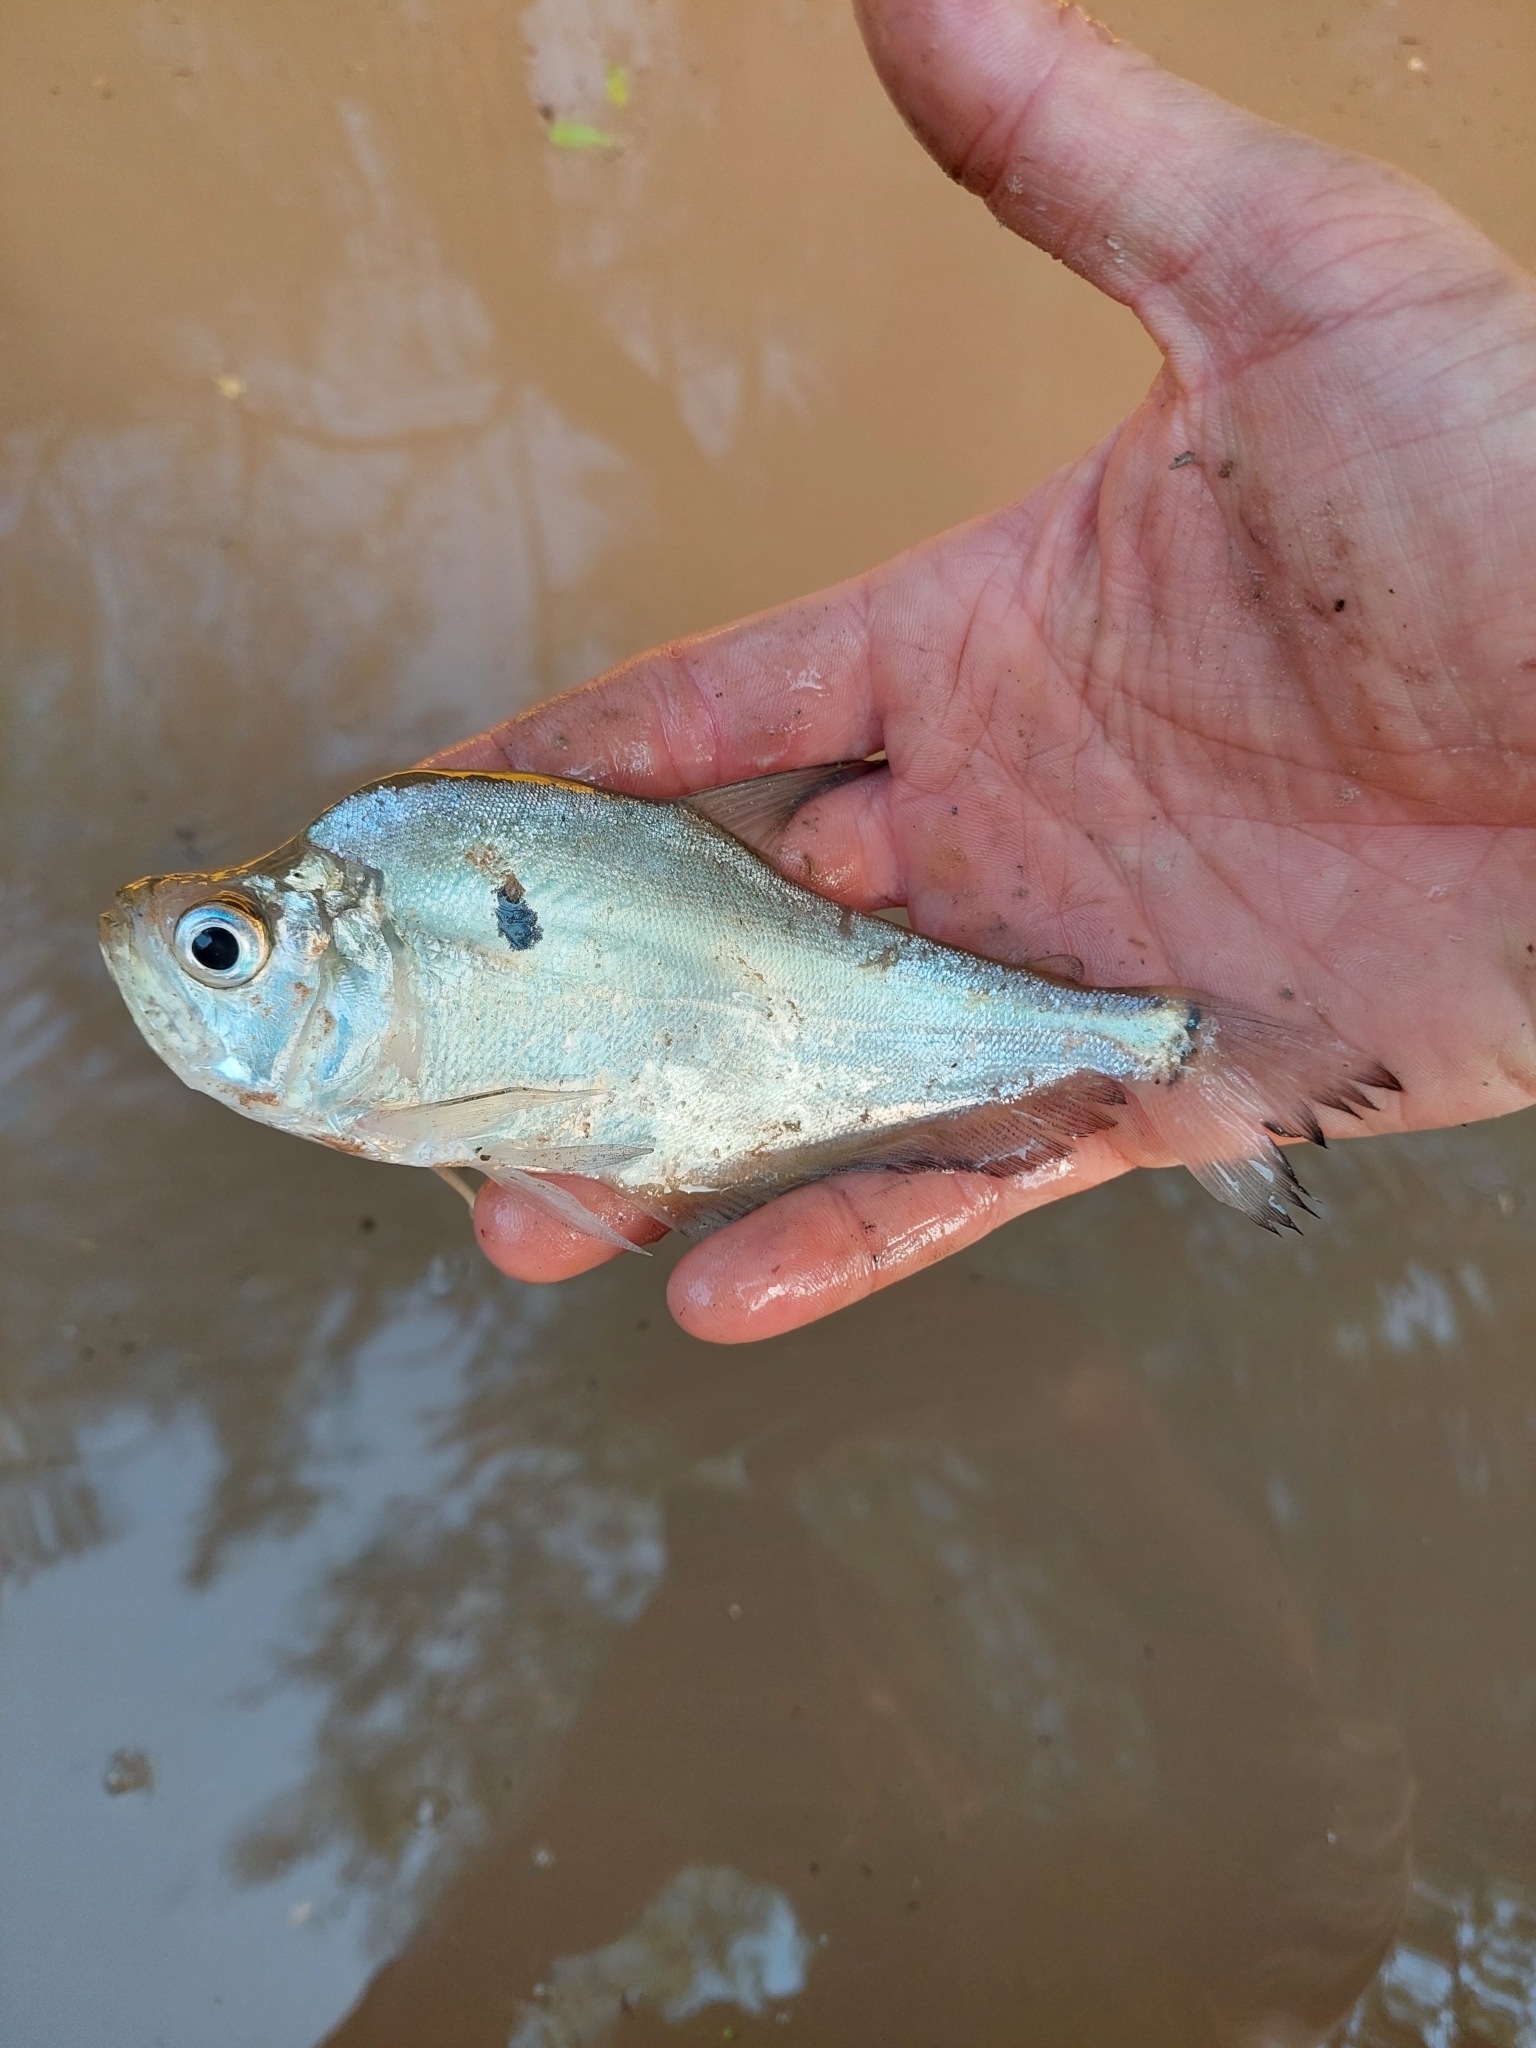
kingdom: Animalia
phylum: Chordata
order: Characiformes
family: Characidae
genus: Roeboides
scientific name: Roeboides microlepis
